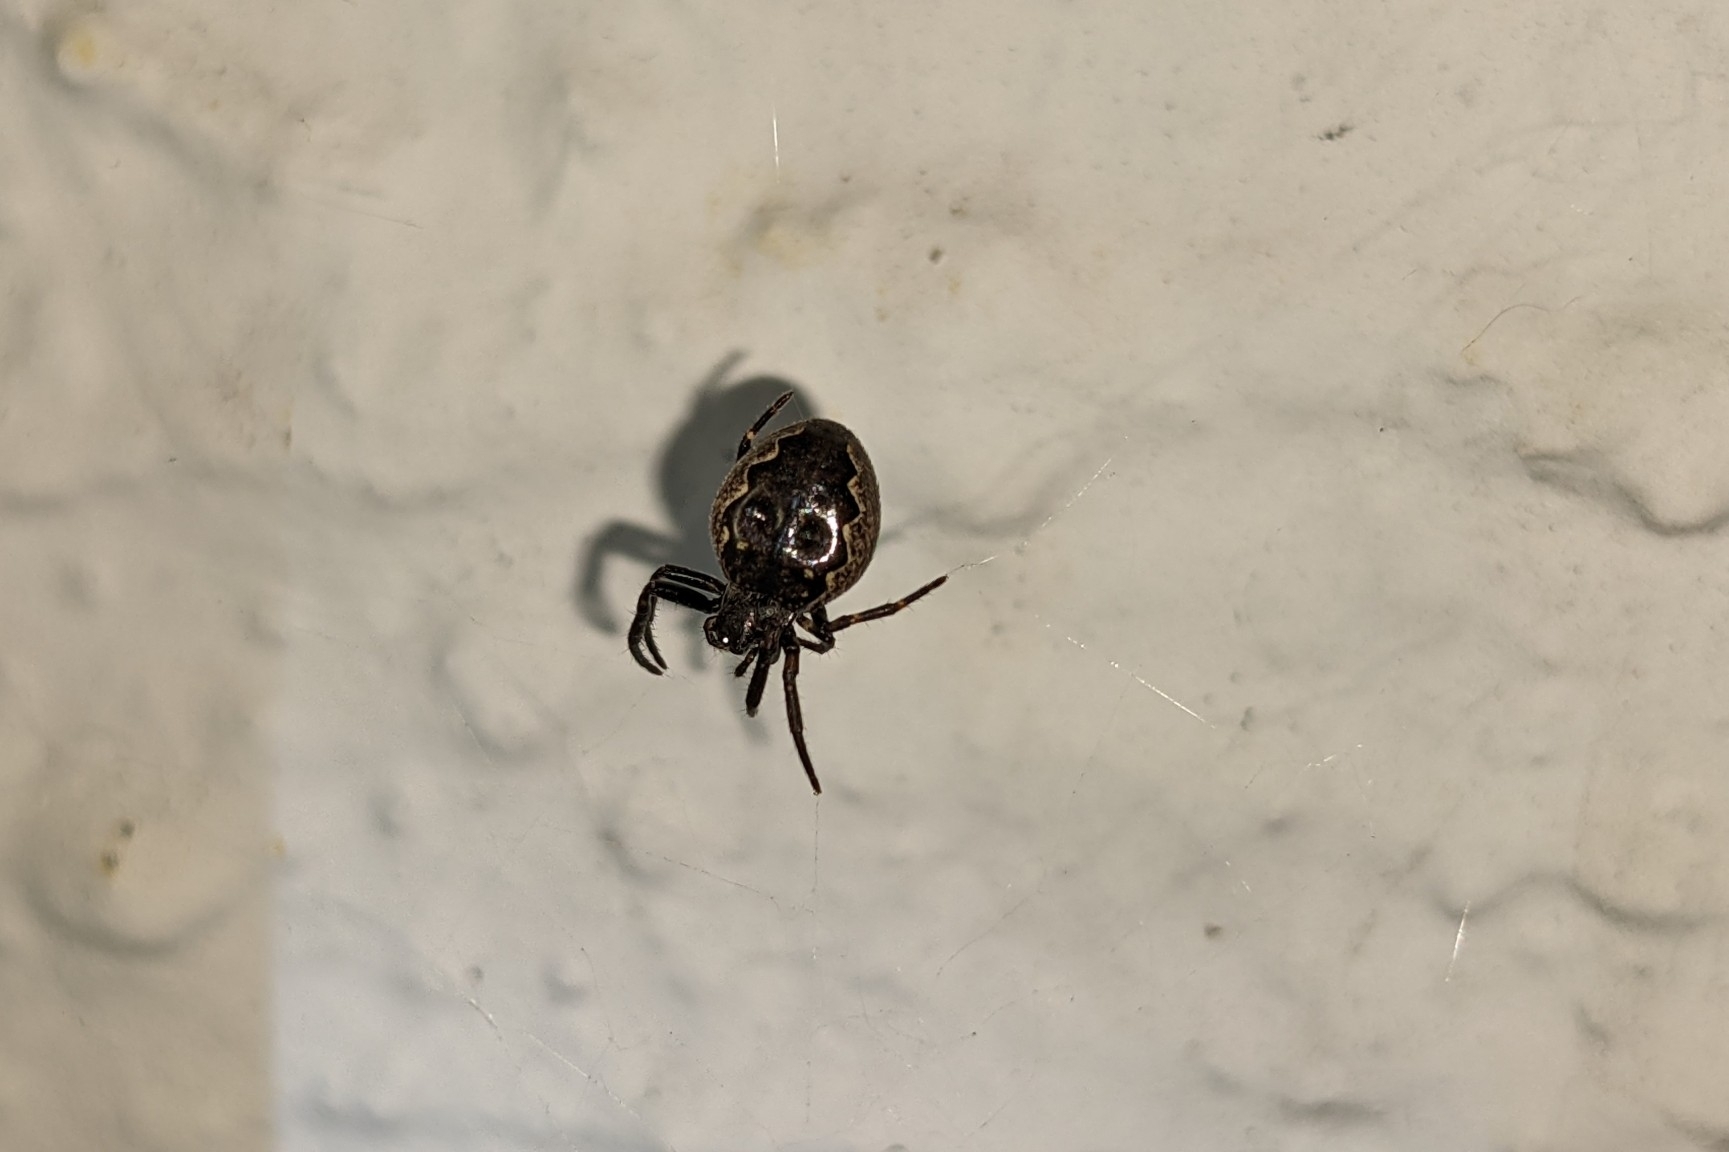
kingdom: Animalia
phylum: Arthropoda
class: Arachnida
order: Araneae
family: Araneidae
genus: Nuctenea
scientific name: Nuctenea umbratica
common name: Toad spider
